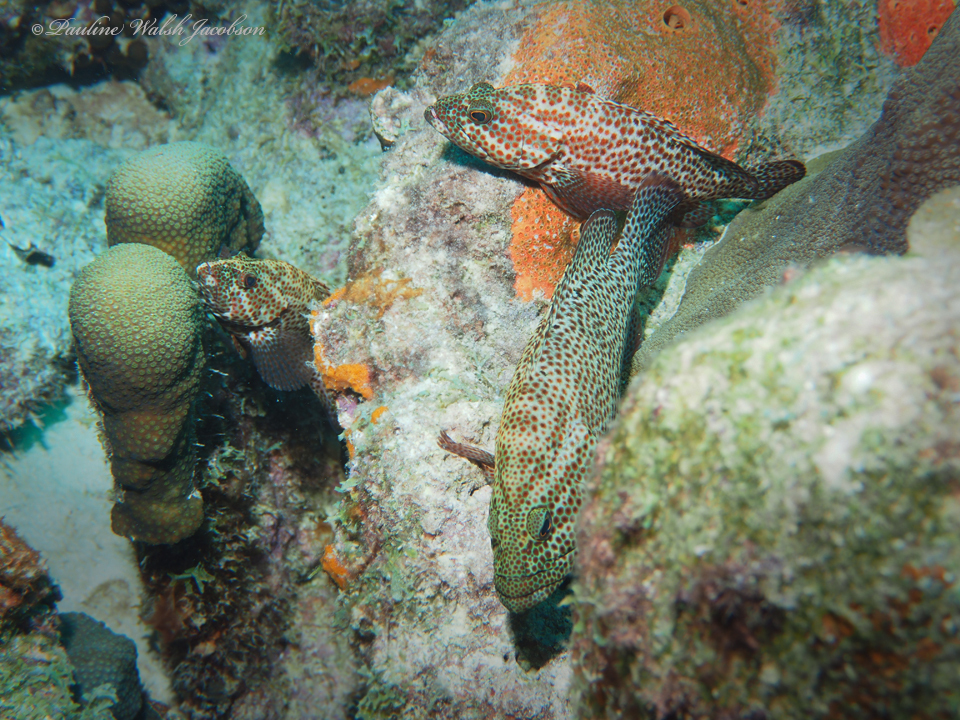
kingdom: Animalia
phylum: Chordata
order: Perciformes
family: Serranidae
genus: Cephalopholis
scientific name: Cephalopholis cruentata
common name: Graysby
